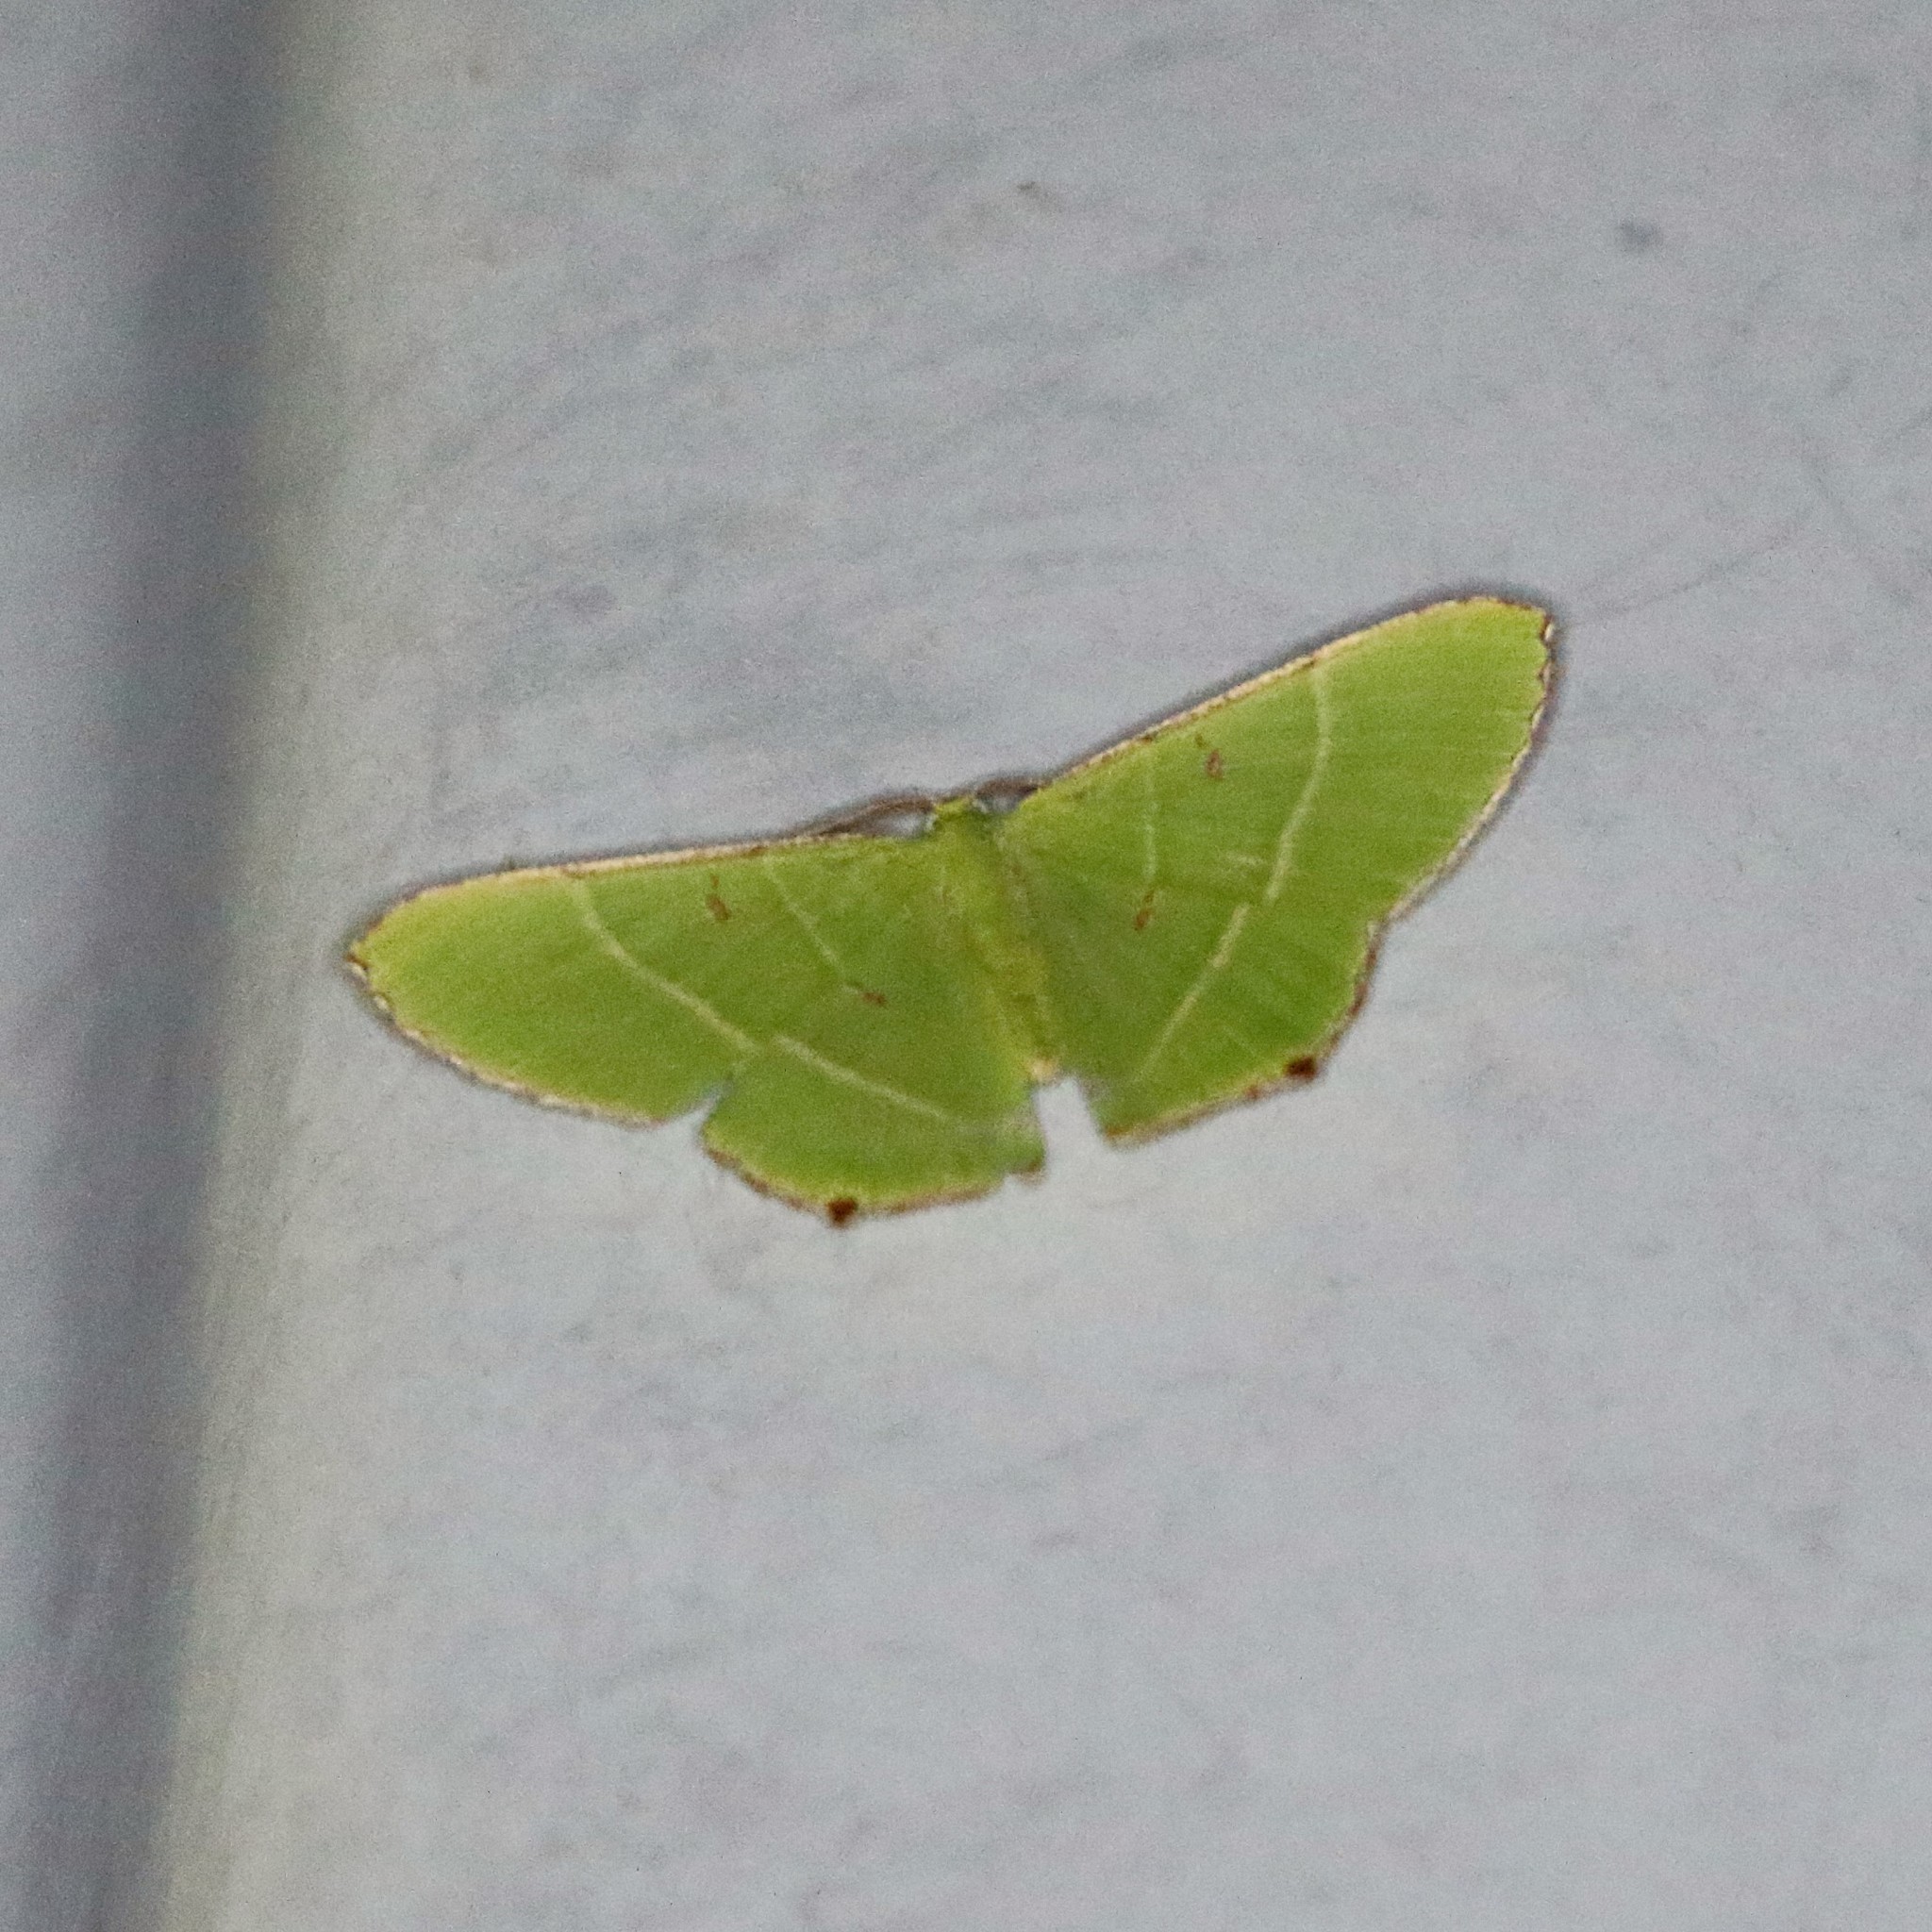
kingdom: Animalia
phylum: Arthropoda
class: Insecta
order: Lepidoptera
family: Geometridae
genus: Ornithospila
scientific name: Ornithospila lineata
